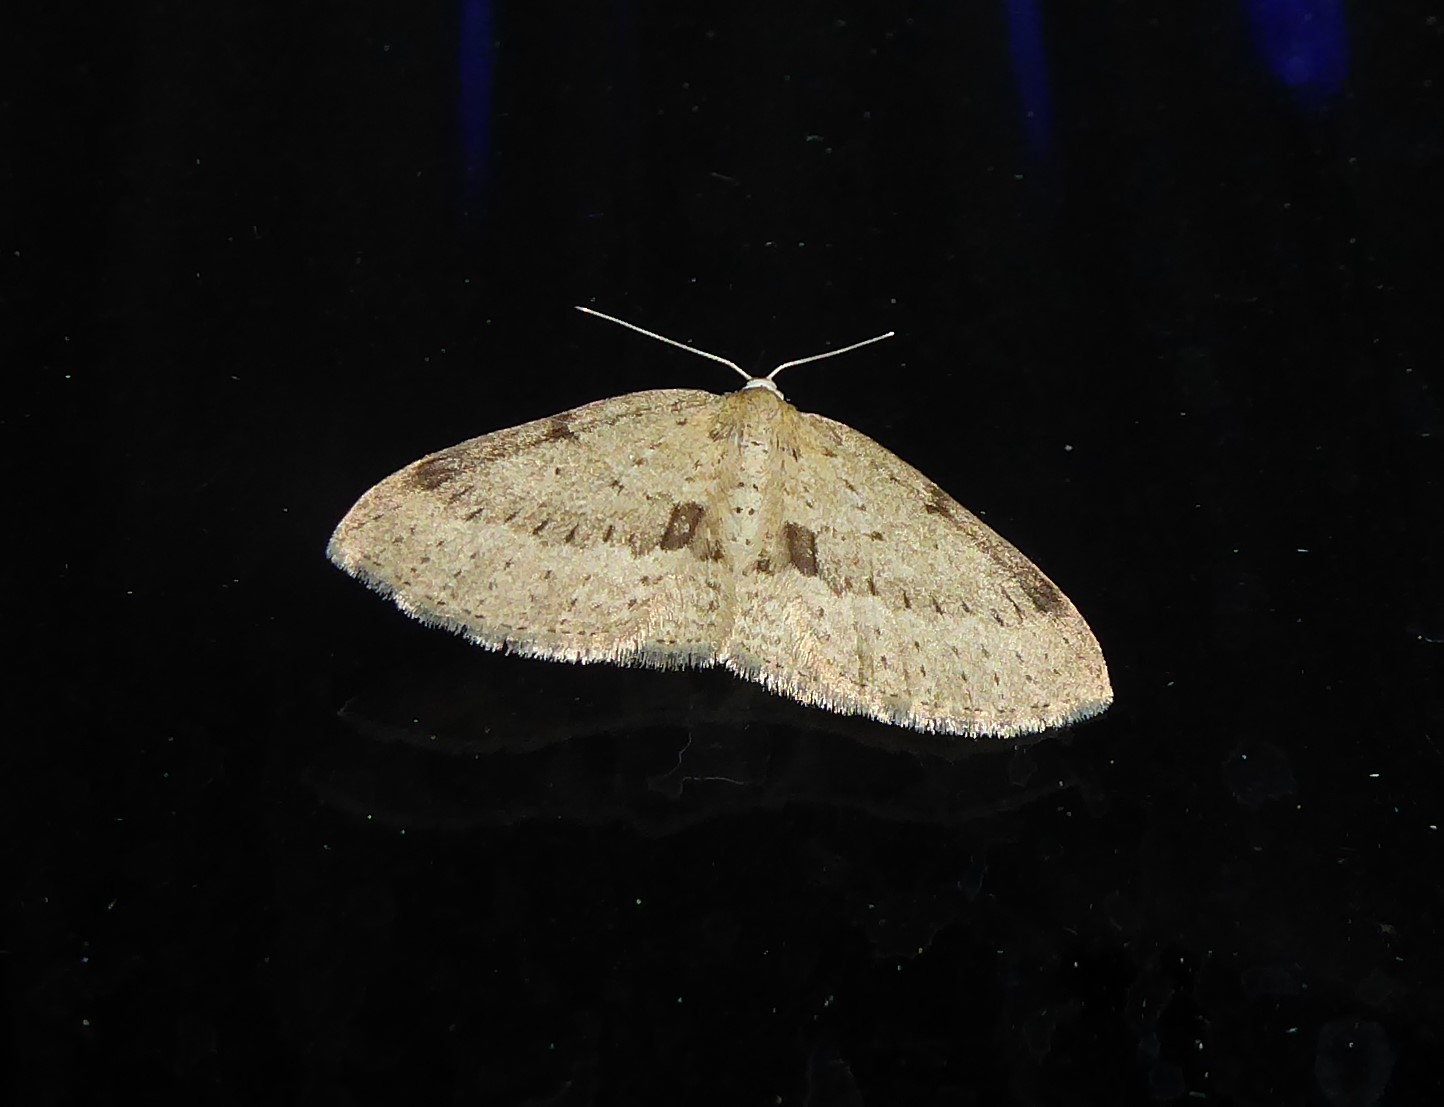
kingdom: Animalia
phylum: Arthropoda
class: Insecta
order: Lepidoptera
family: Geometridae
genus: Poecilasthena
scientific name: Poecilasthena schistaria
